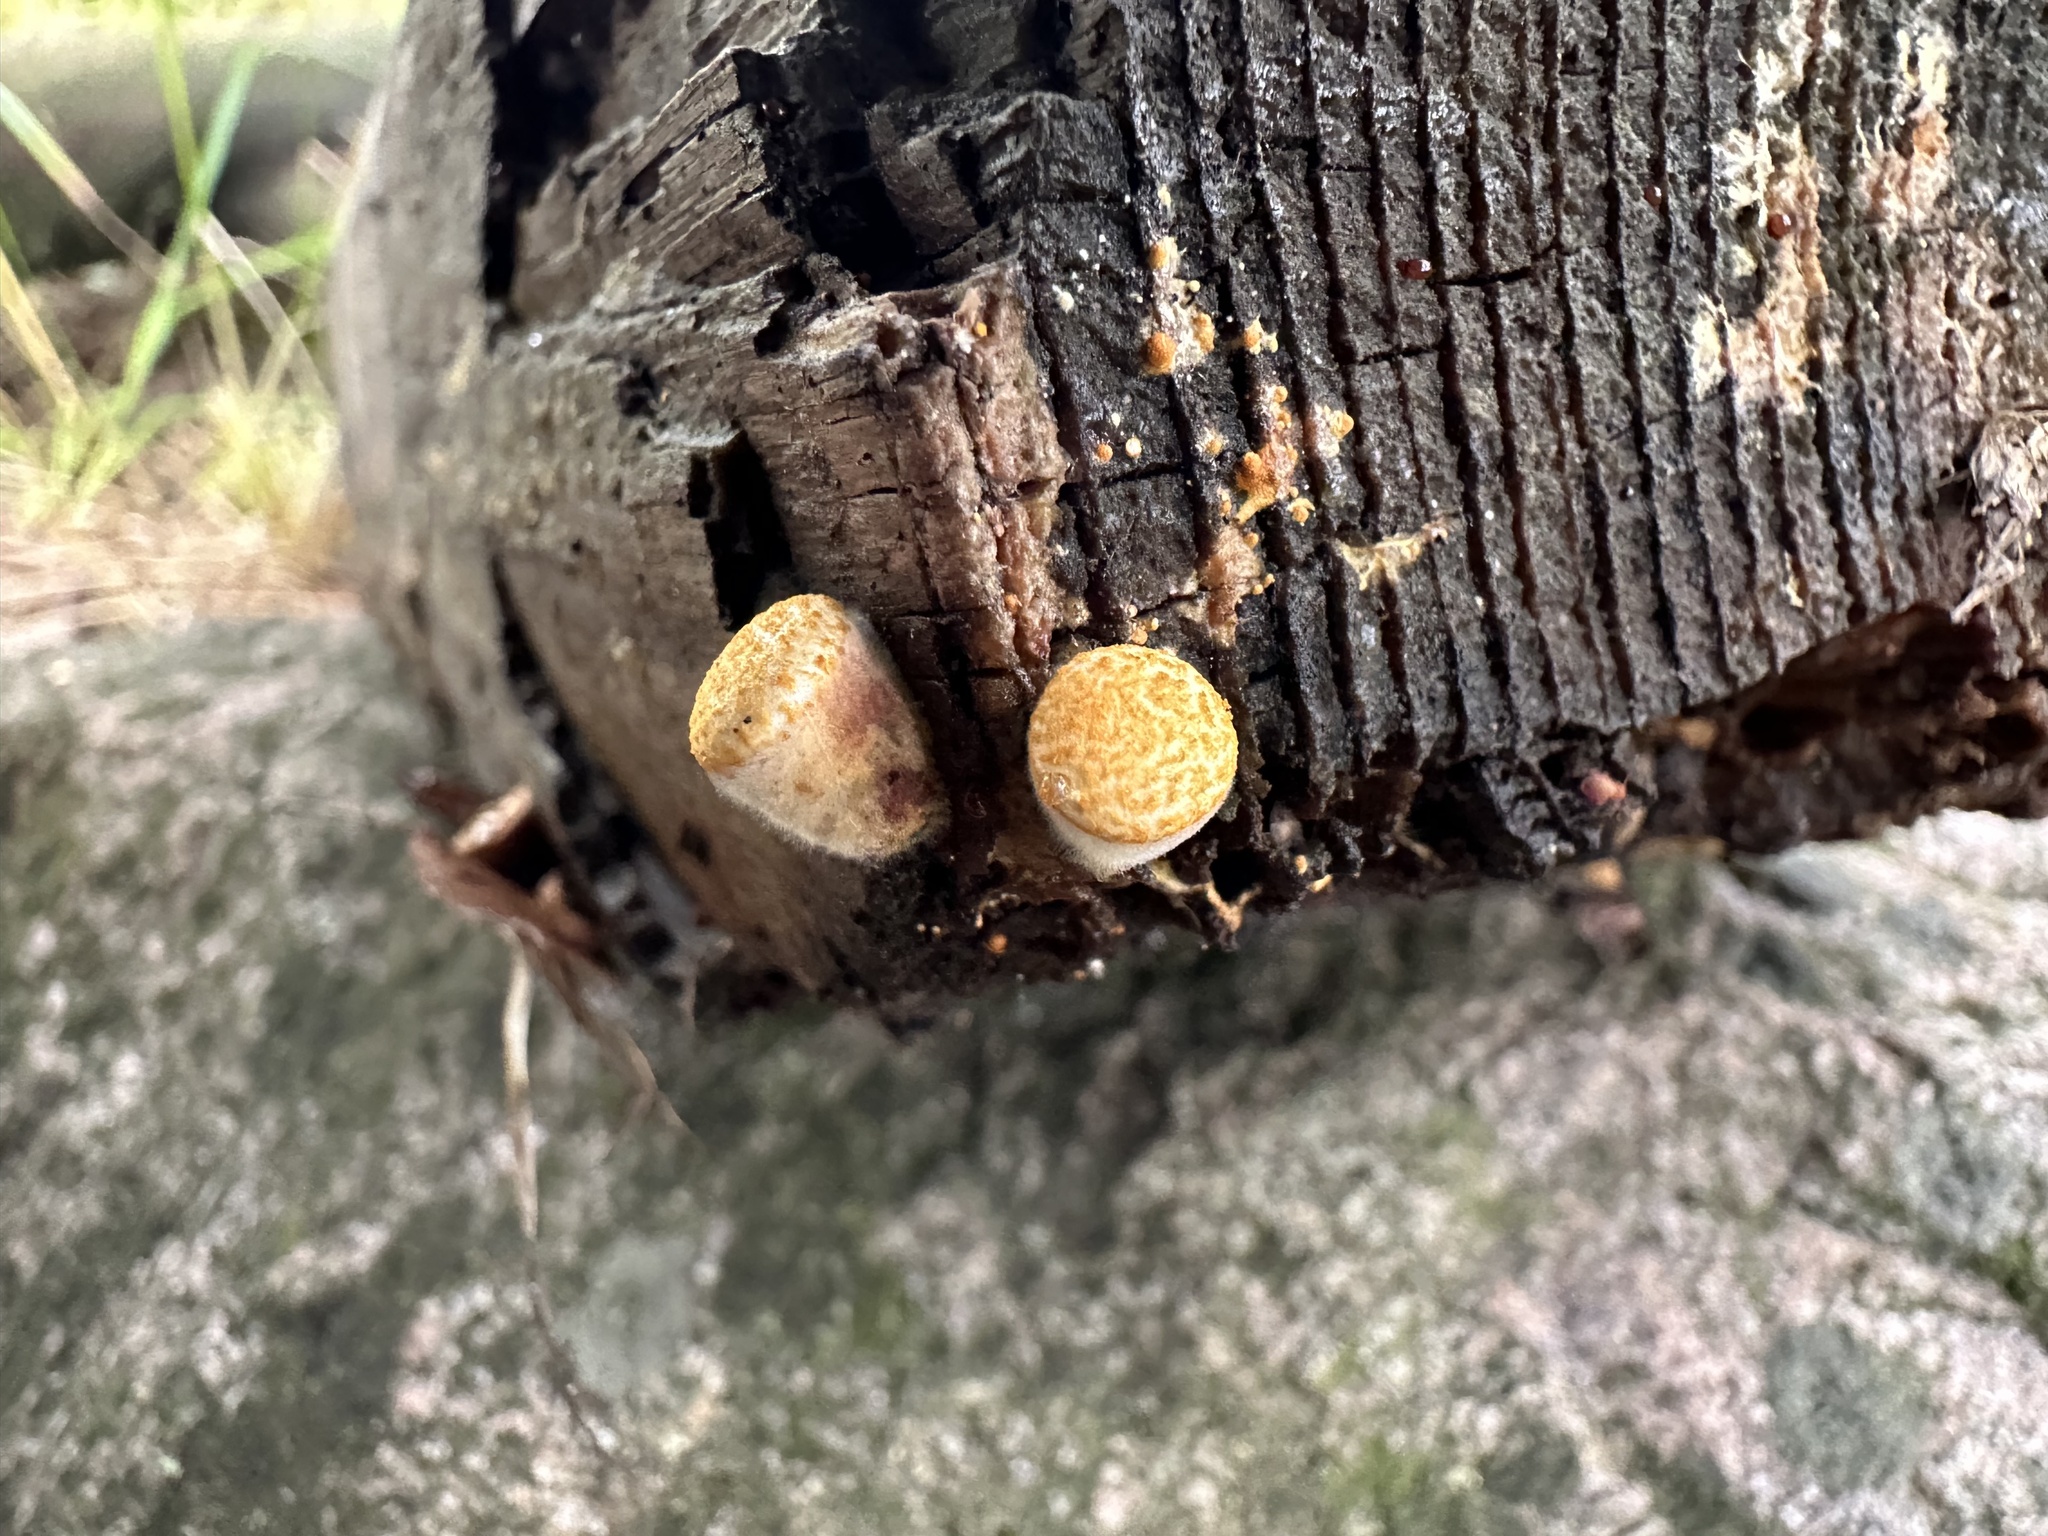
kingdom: Fungi
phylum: Basidiomycota
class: Agaricomycetes
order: Agaricales
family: Nidulariaceae
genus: Crucibulum
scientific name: Crucibulum laeve
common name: Common bird's nest
